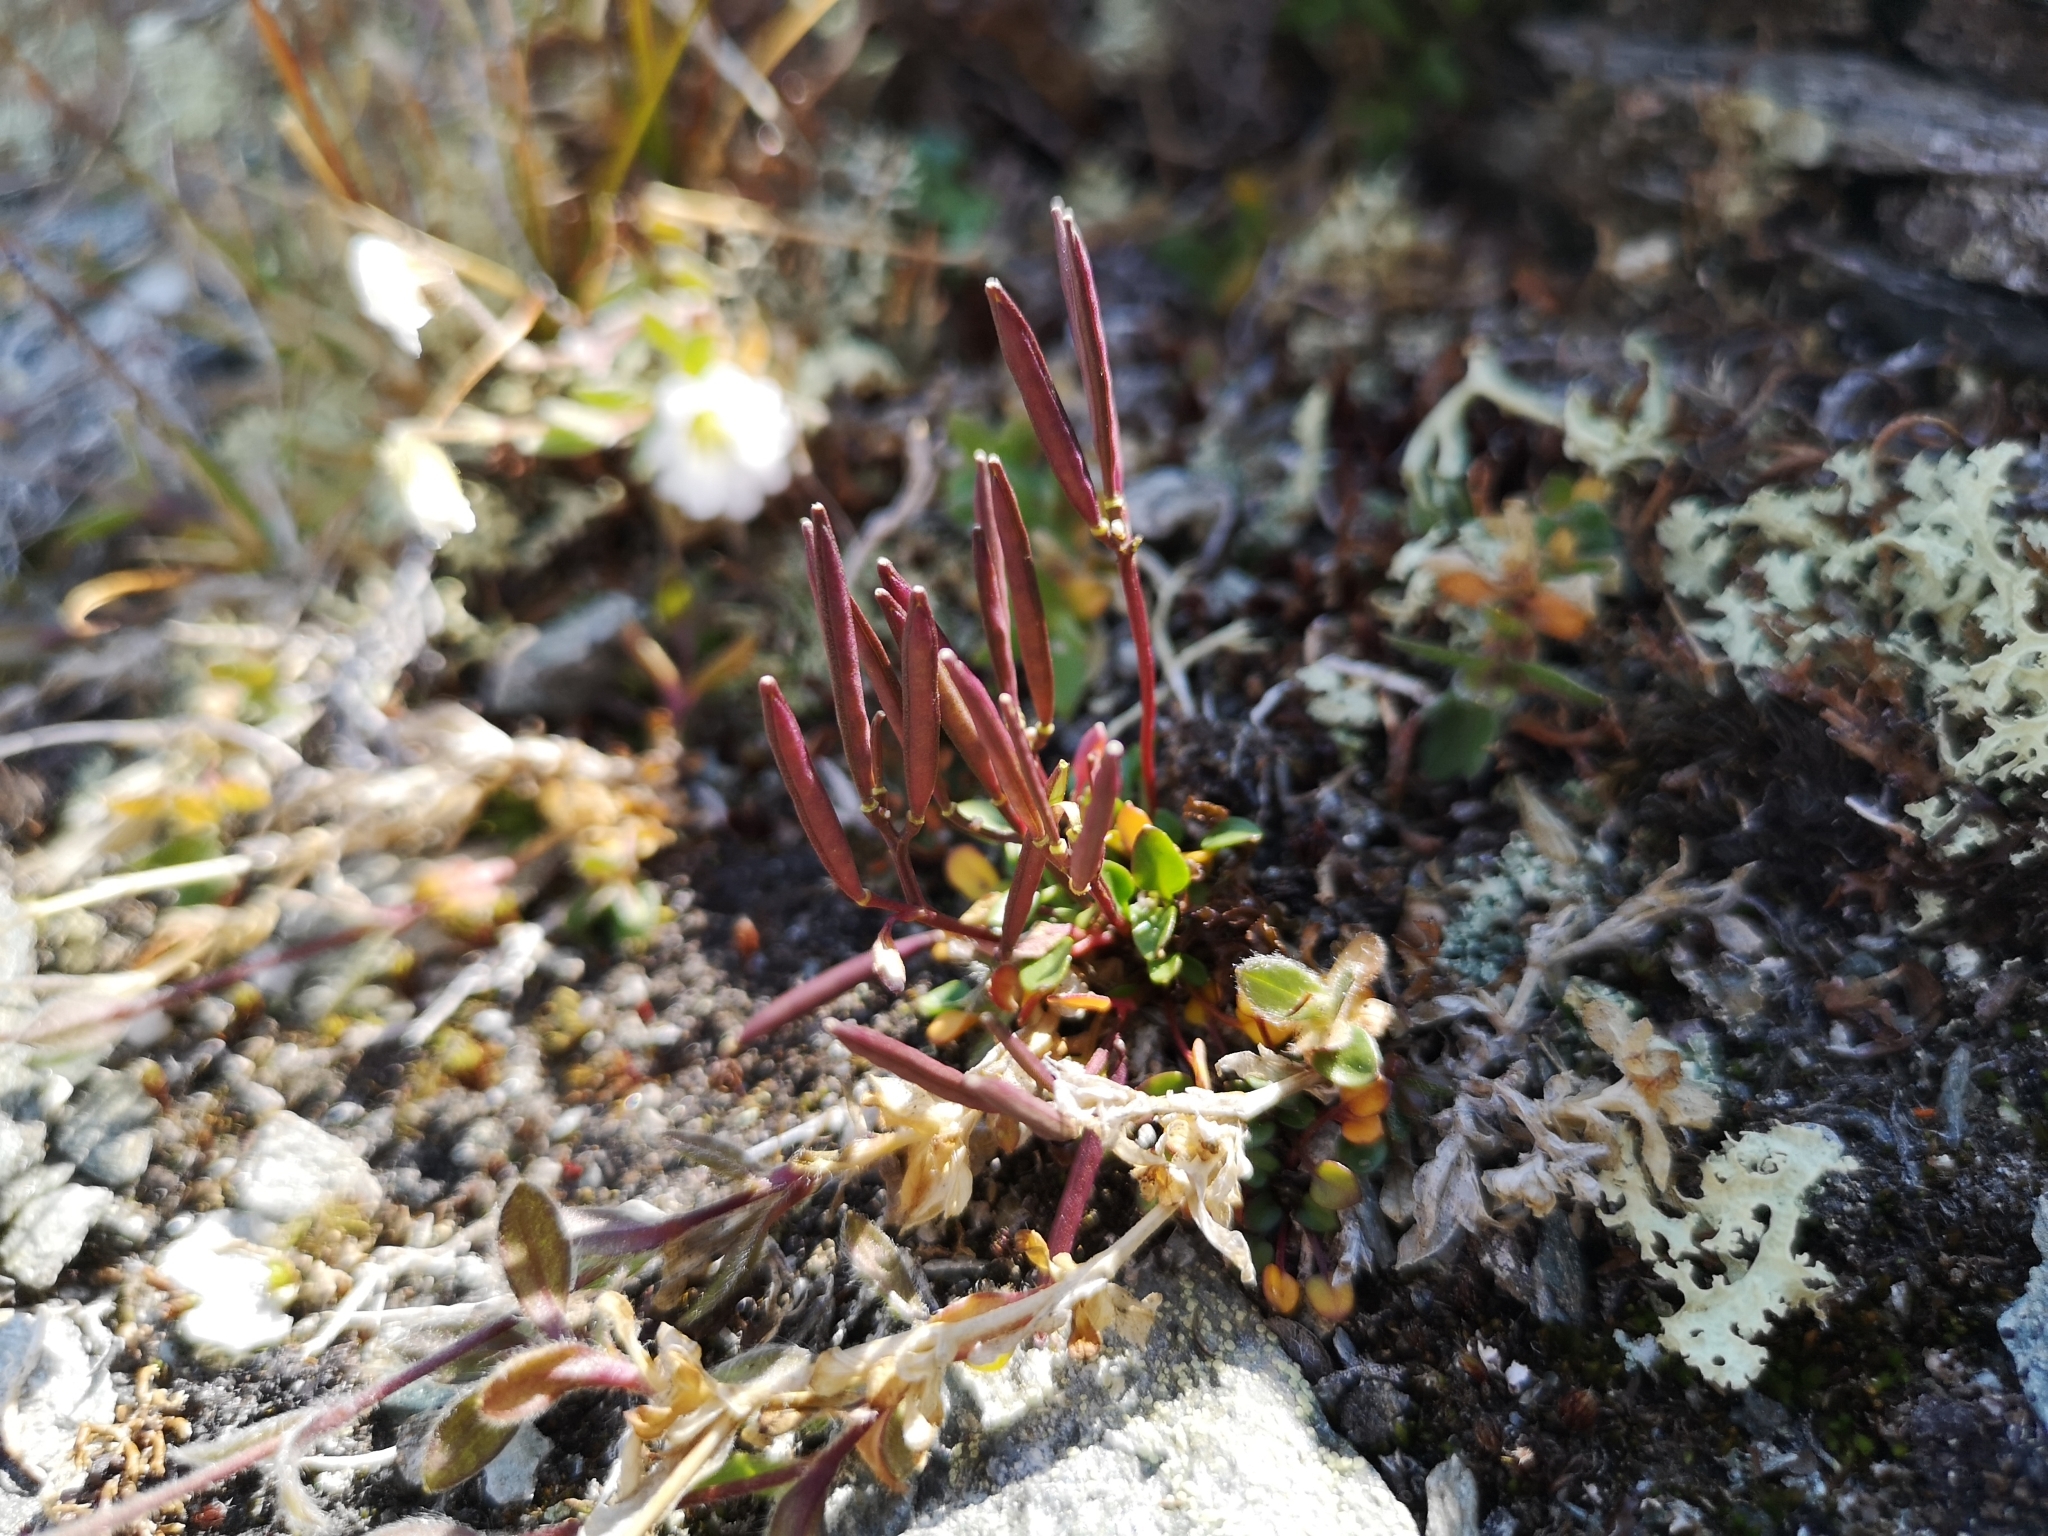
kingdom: Plantae
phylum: Tracheophyta
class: Magnoliopsida
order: Brassicales
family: Brassicaceae
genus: Cardamine
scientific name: Cardamine bellidifolia
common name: Alpine bittercress
